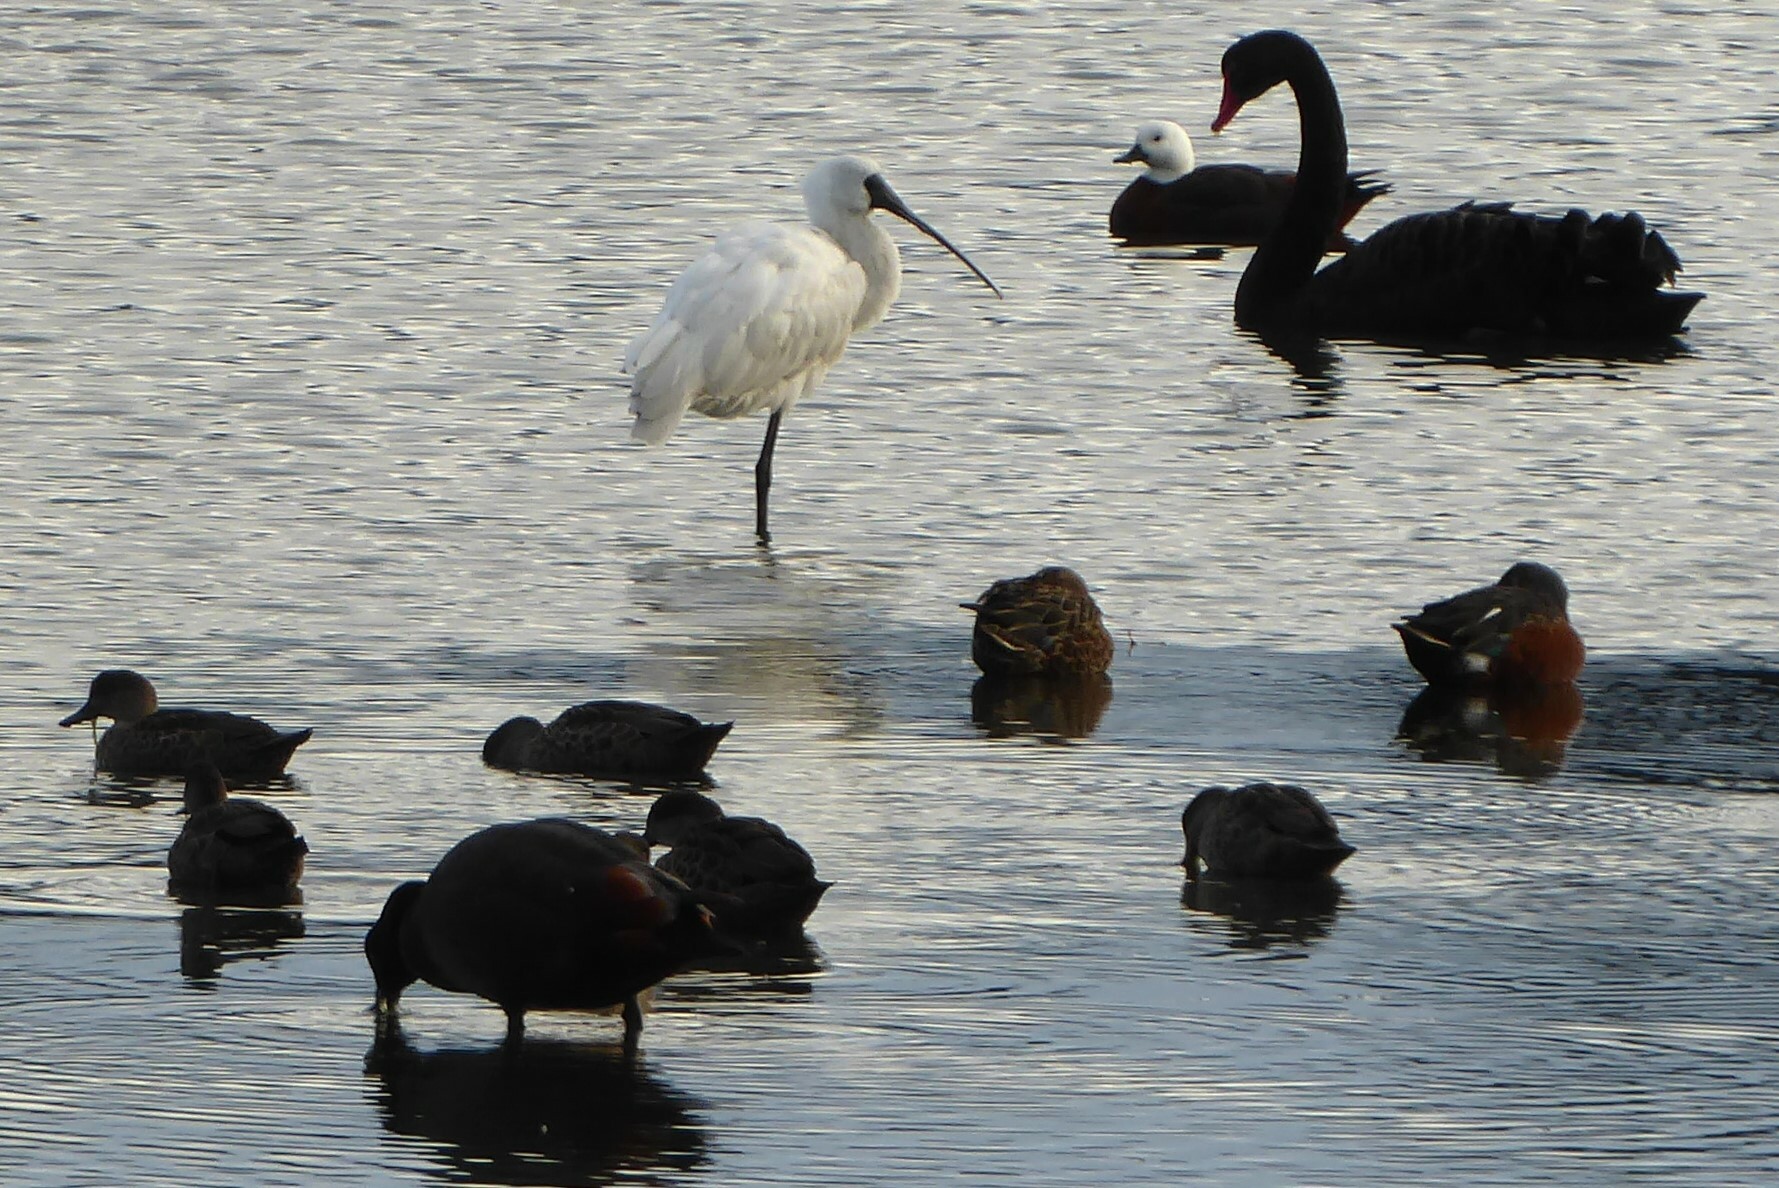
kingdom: Animalia
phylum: Chordata
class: Aves
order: Pelecaniformes
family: Threskiornithidae
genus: Platalea
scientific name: Platalea regia
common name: Royal spoonbill
